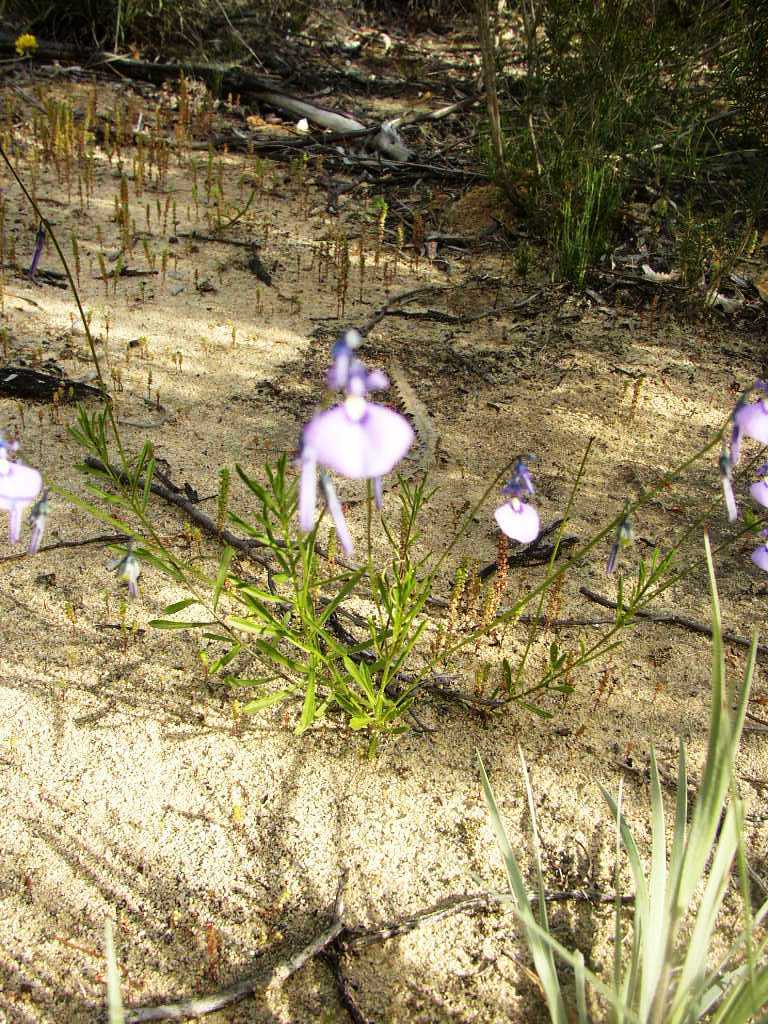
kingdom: Plantae
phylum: Tracheophyta
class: Magnoliopsida
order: Malpighiales
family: Violaceae
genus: Pigea
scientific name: Pigea calycina
